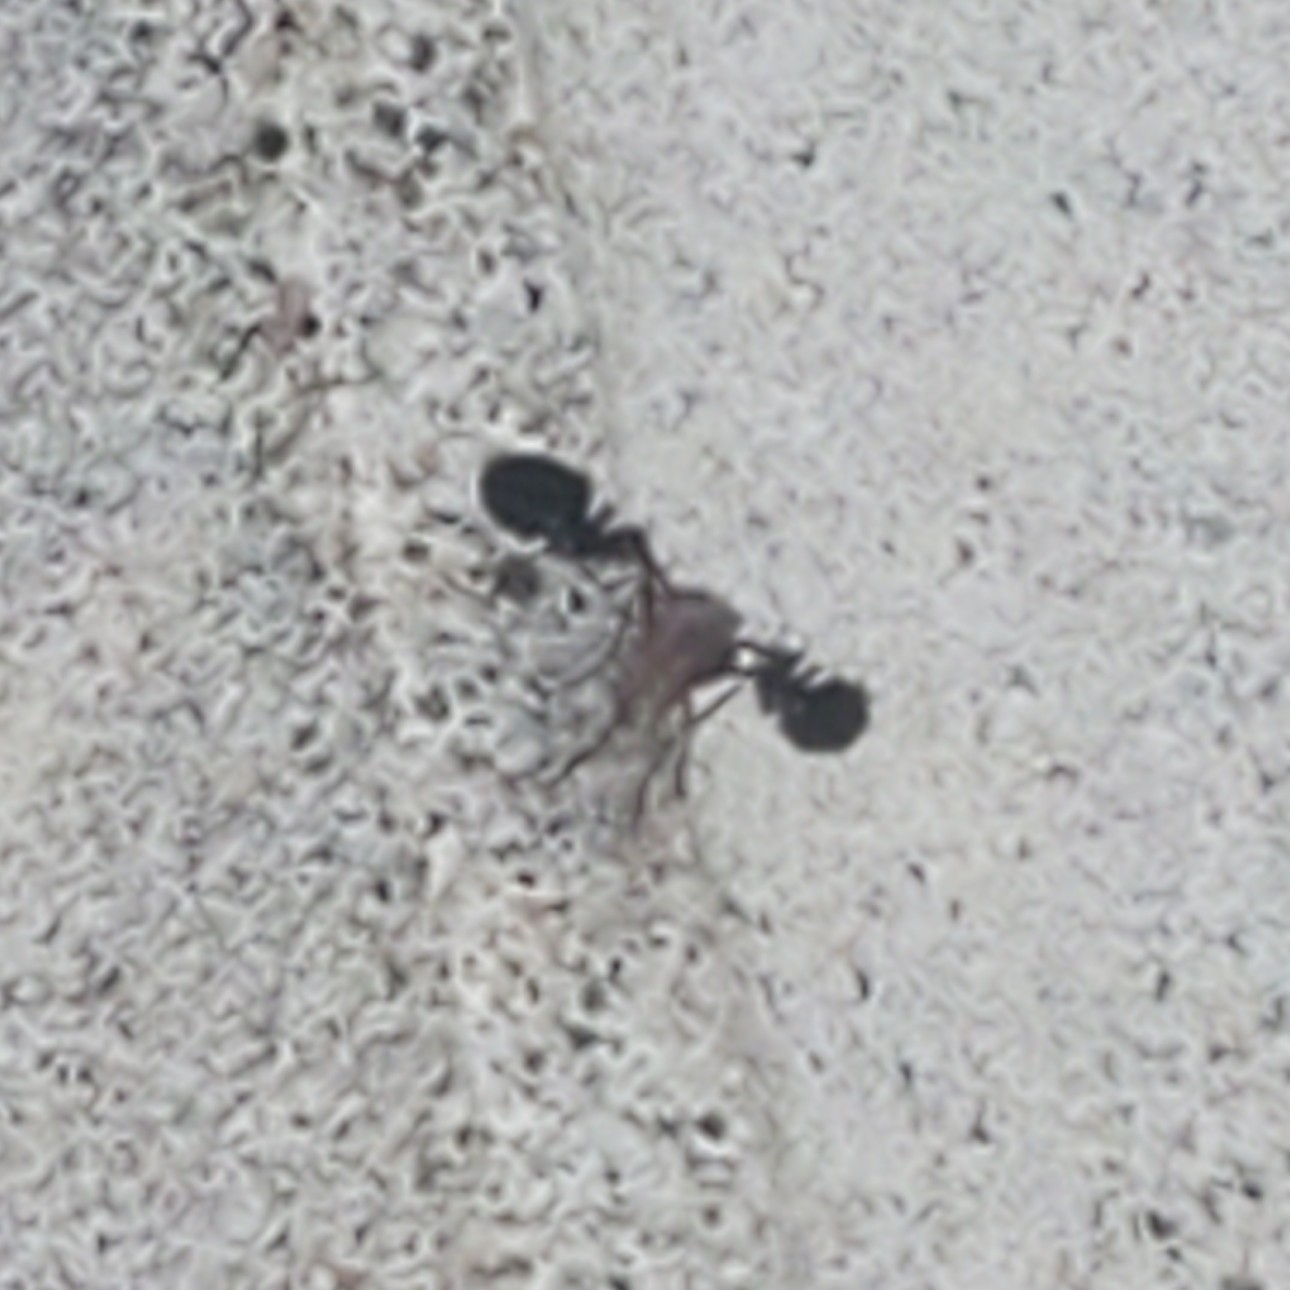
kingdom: Animalia
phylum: Arthropoda
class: Insecta
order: Diptera
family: Ulidiidae
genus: Delphinia
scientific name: Delphinia picta
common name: Common picture-winged fly
